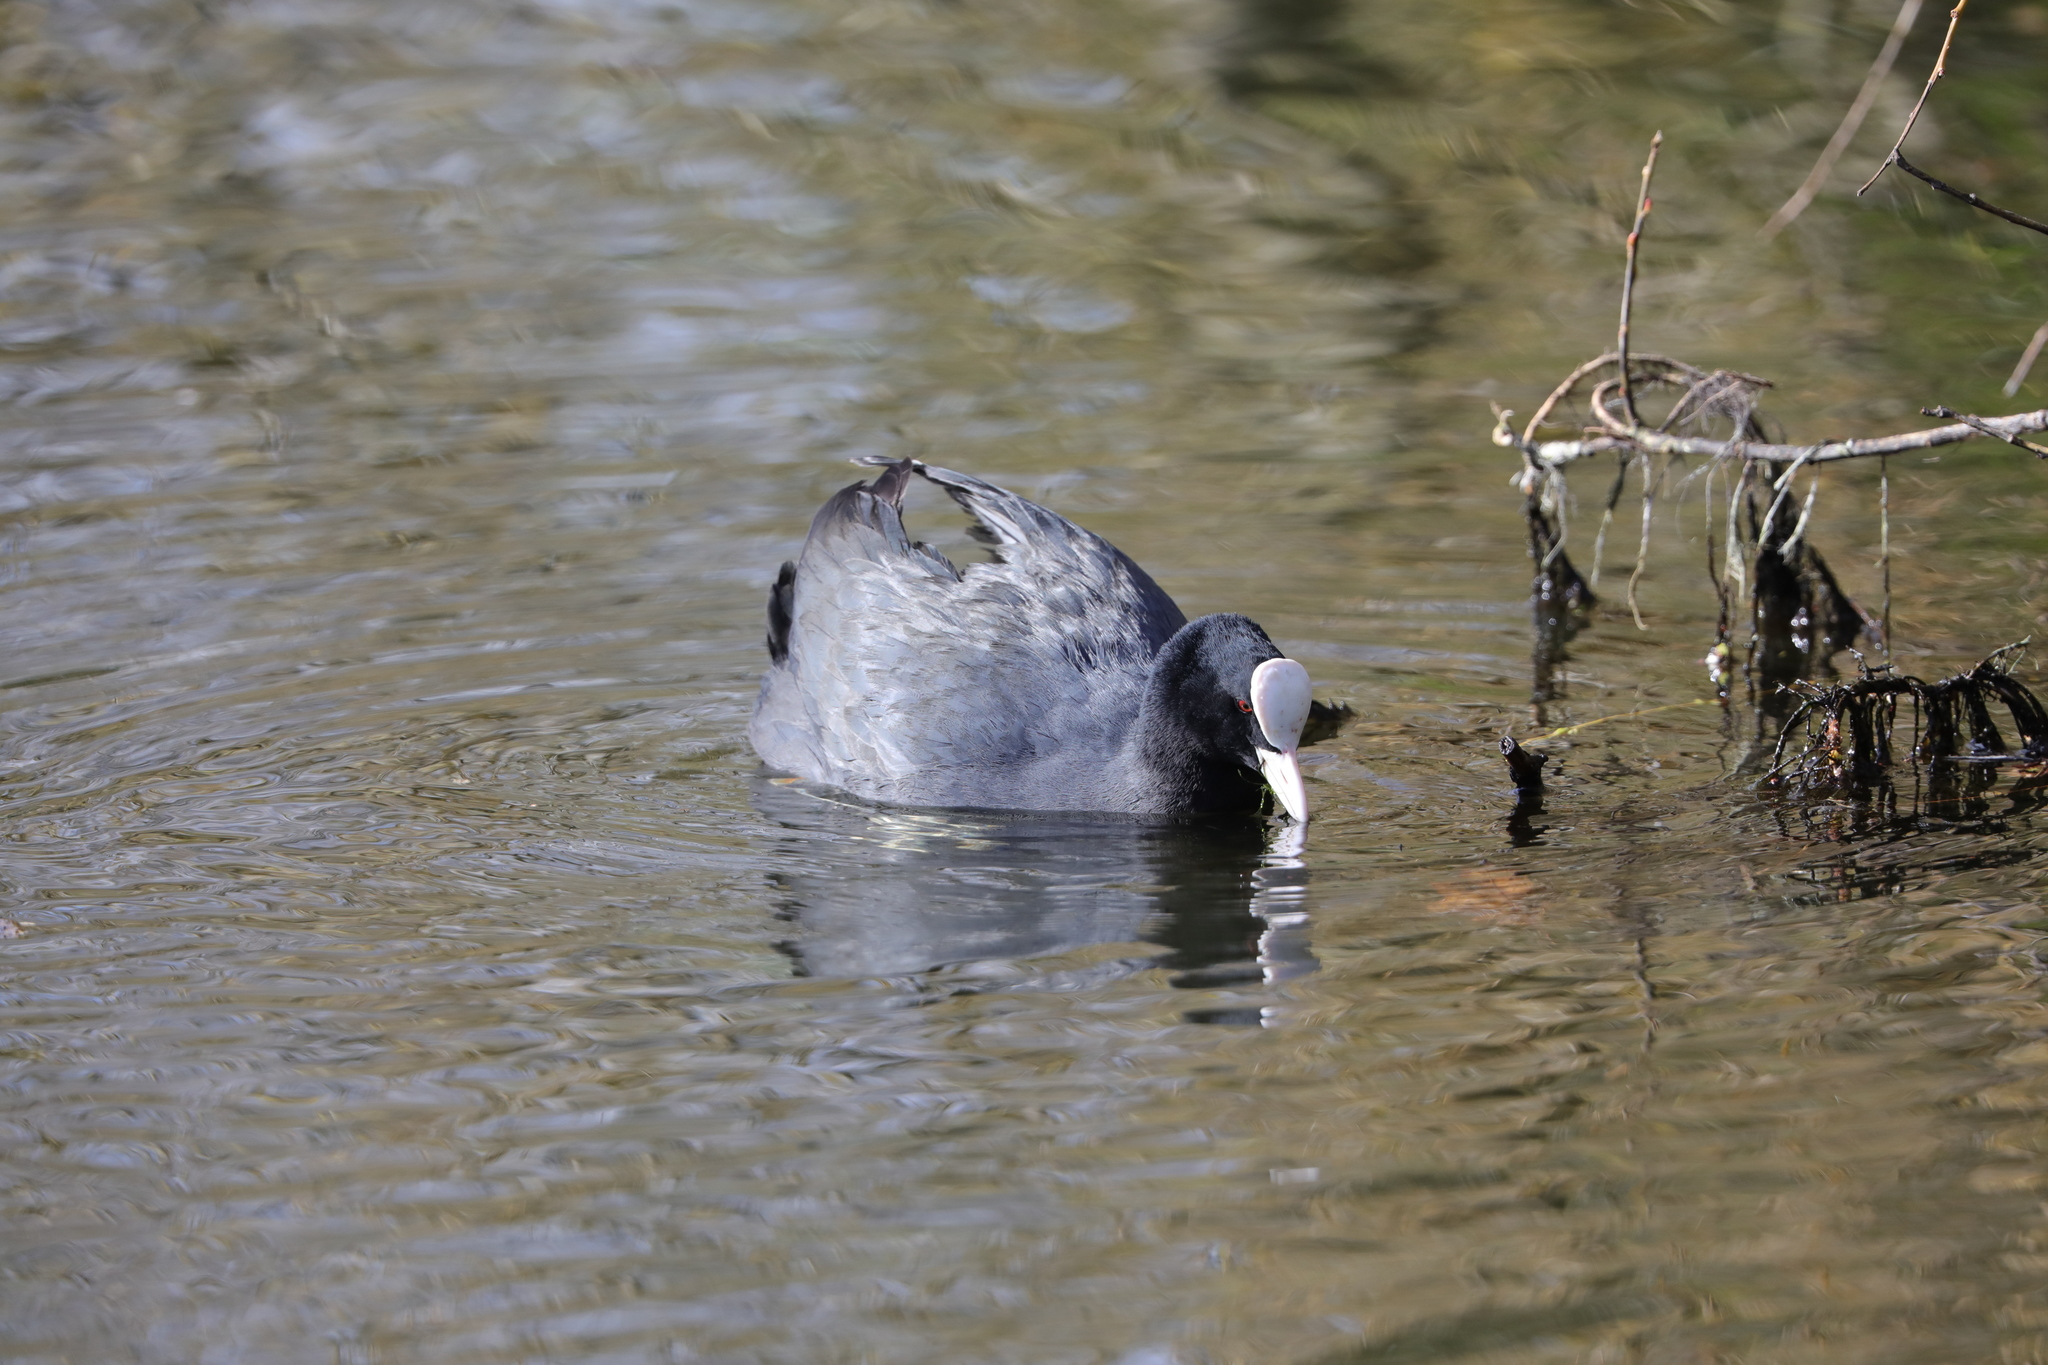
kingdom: Animalia
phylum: Chordata
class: Aves
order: Gruiformes
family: Rallidae
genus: Fulica
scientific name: Fulica atra
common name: Eurasian coot
